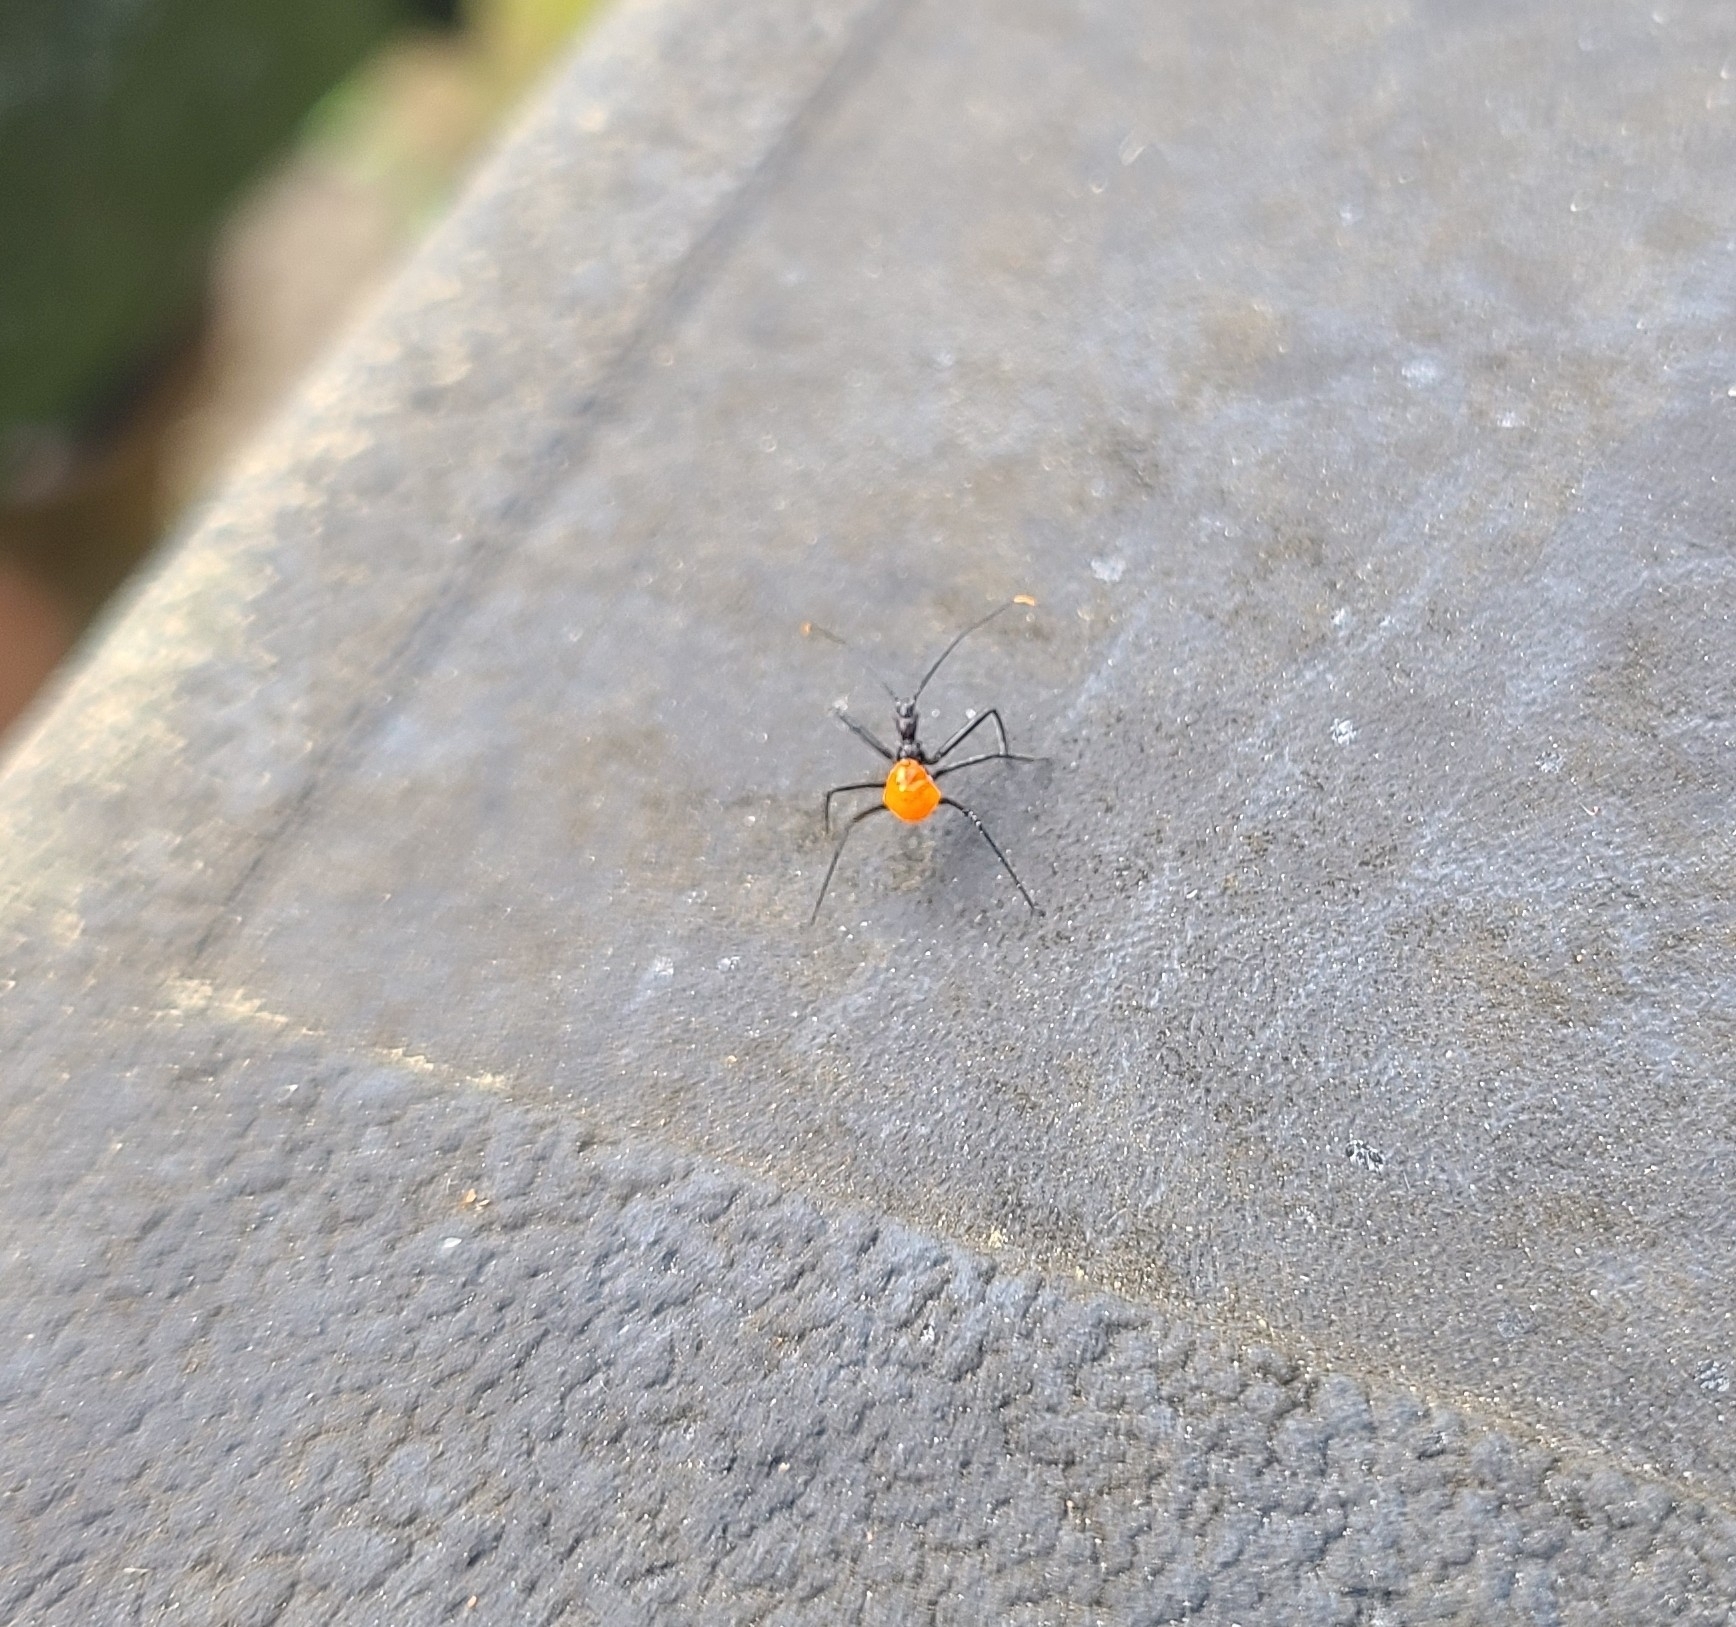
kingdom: Animalia
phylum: Arthropoda
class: Insecta
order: Hemiptera
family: Reduviidae
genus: Arilus
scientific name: Arilus cristatus
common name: North american wheel bug
